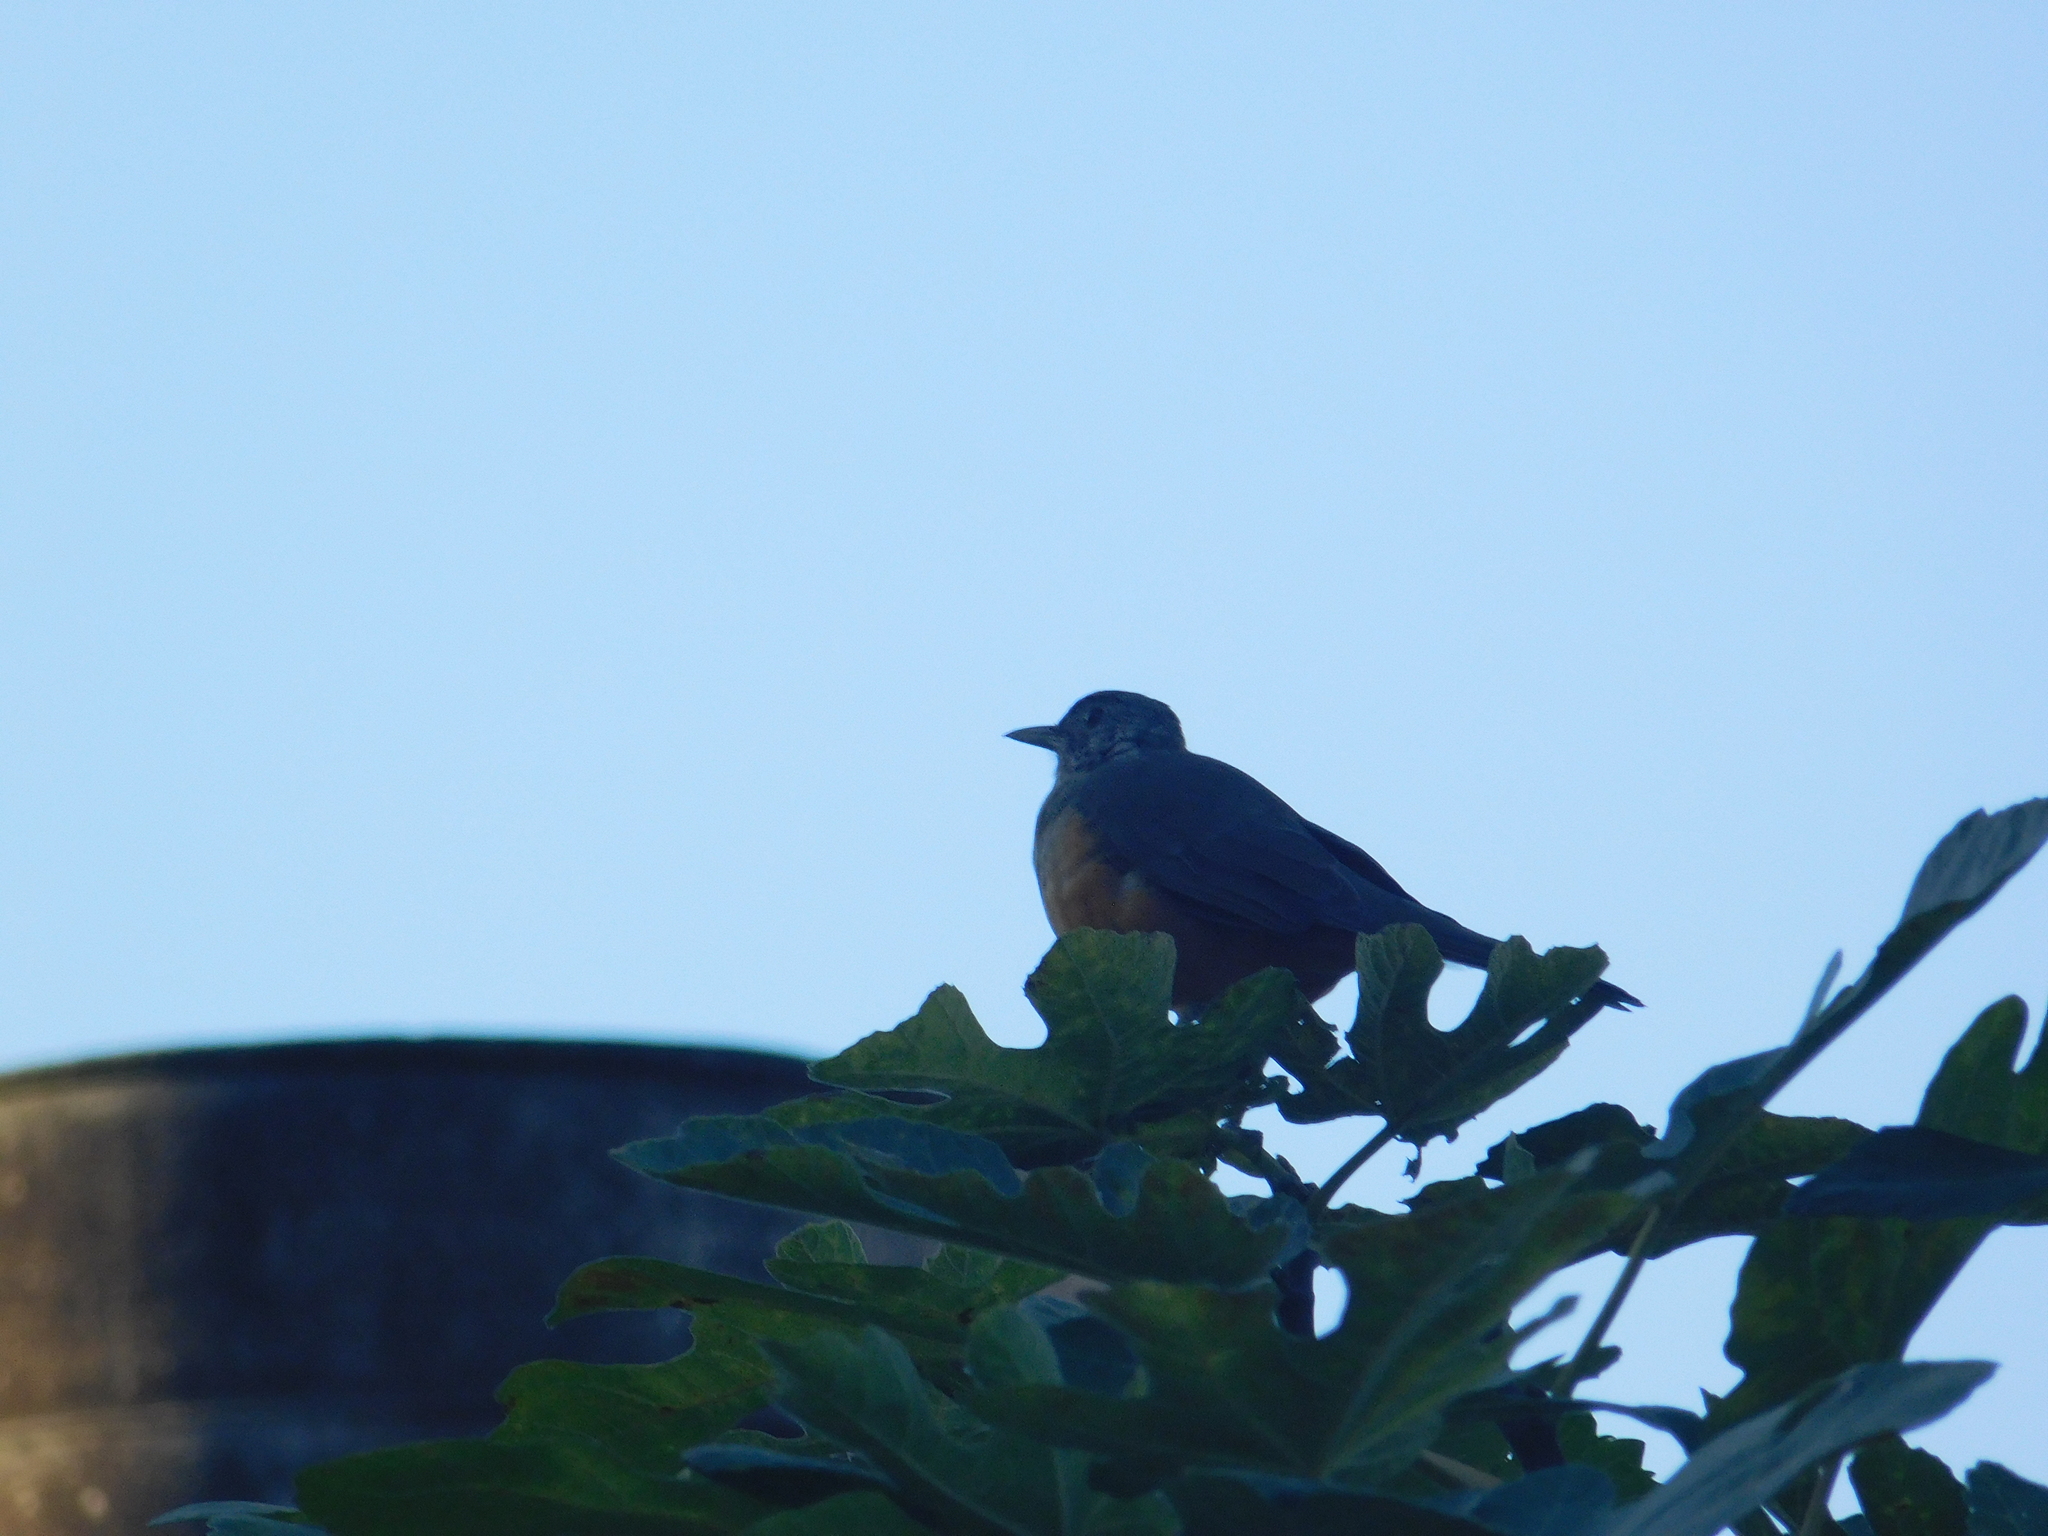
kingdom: Animalia
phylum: Chordata
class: Aves
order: Passeriformes
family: Turdidae
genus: Turdus
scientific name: Turdus rufiventris
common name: Rufous-bellied thrush
